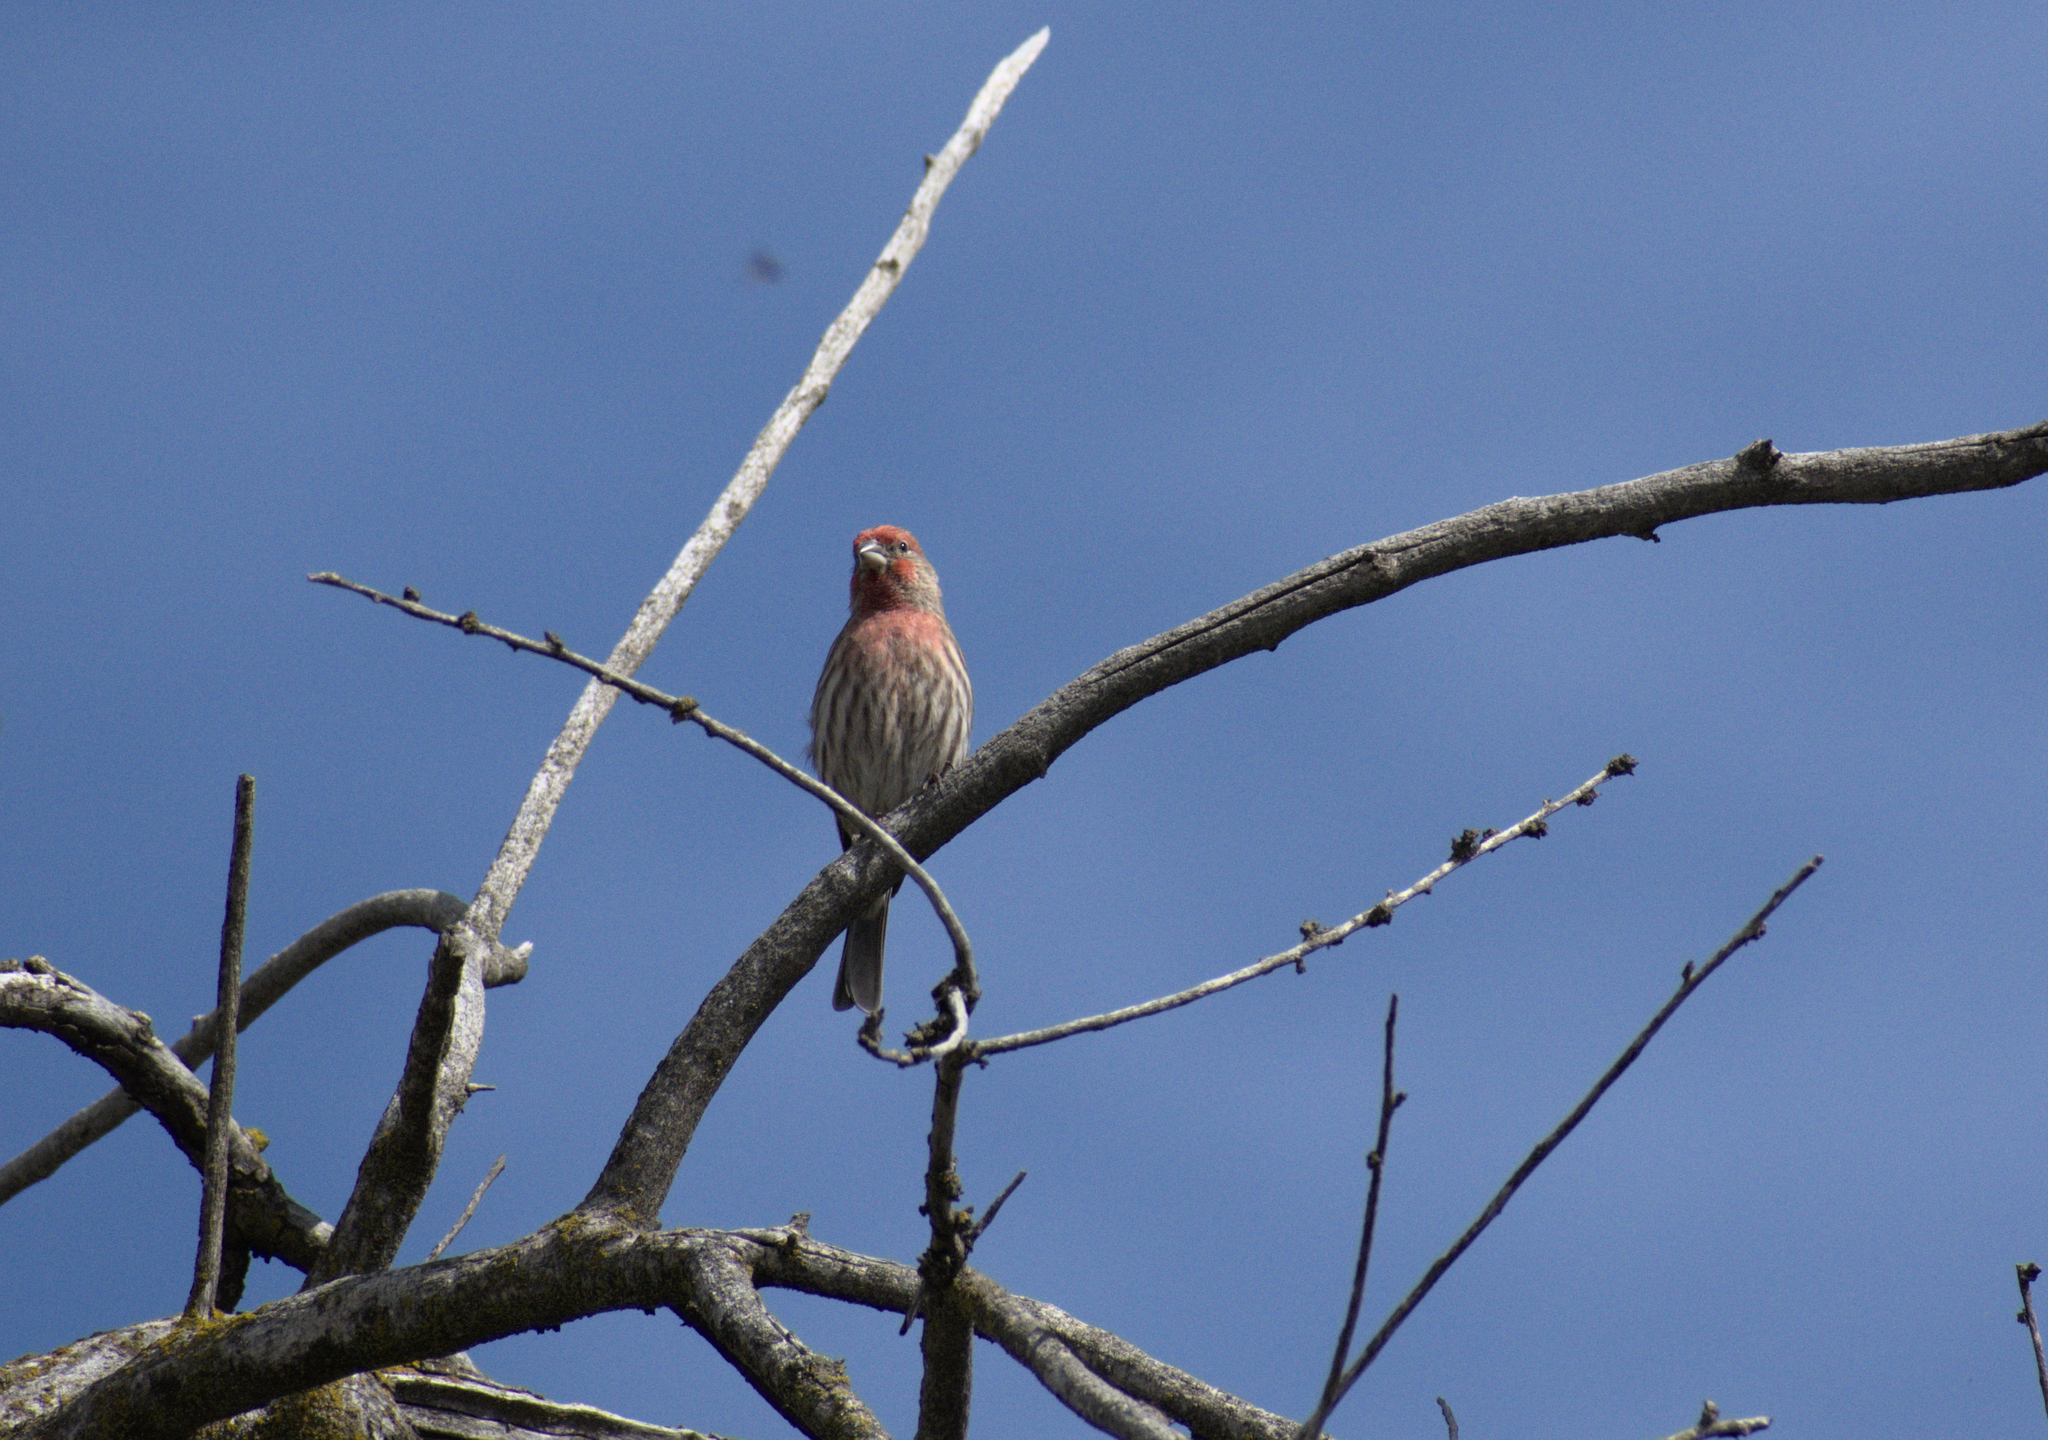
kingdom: Animalia
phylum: Chordata
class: Aves
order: Passeriformes
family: Fringillidae
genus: Haemorhous
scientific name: Haemorhous mexicanus
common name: House finch
